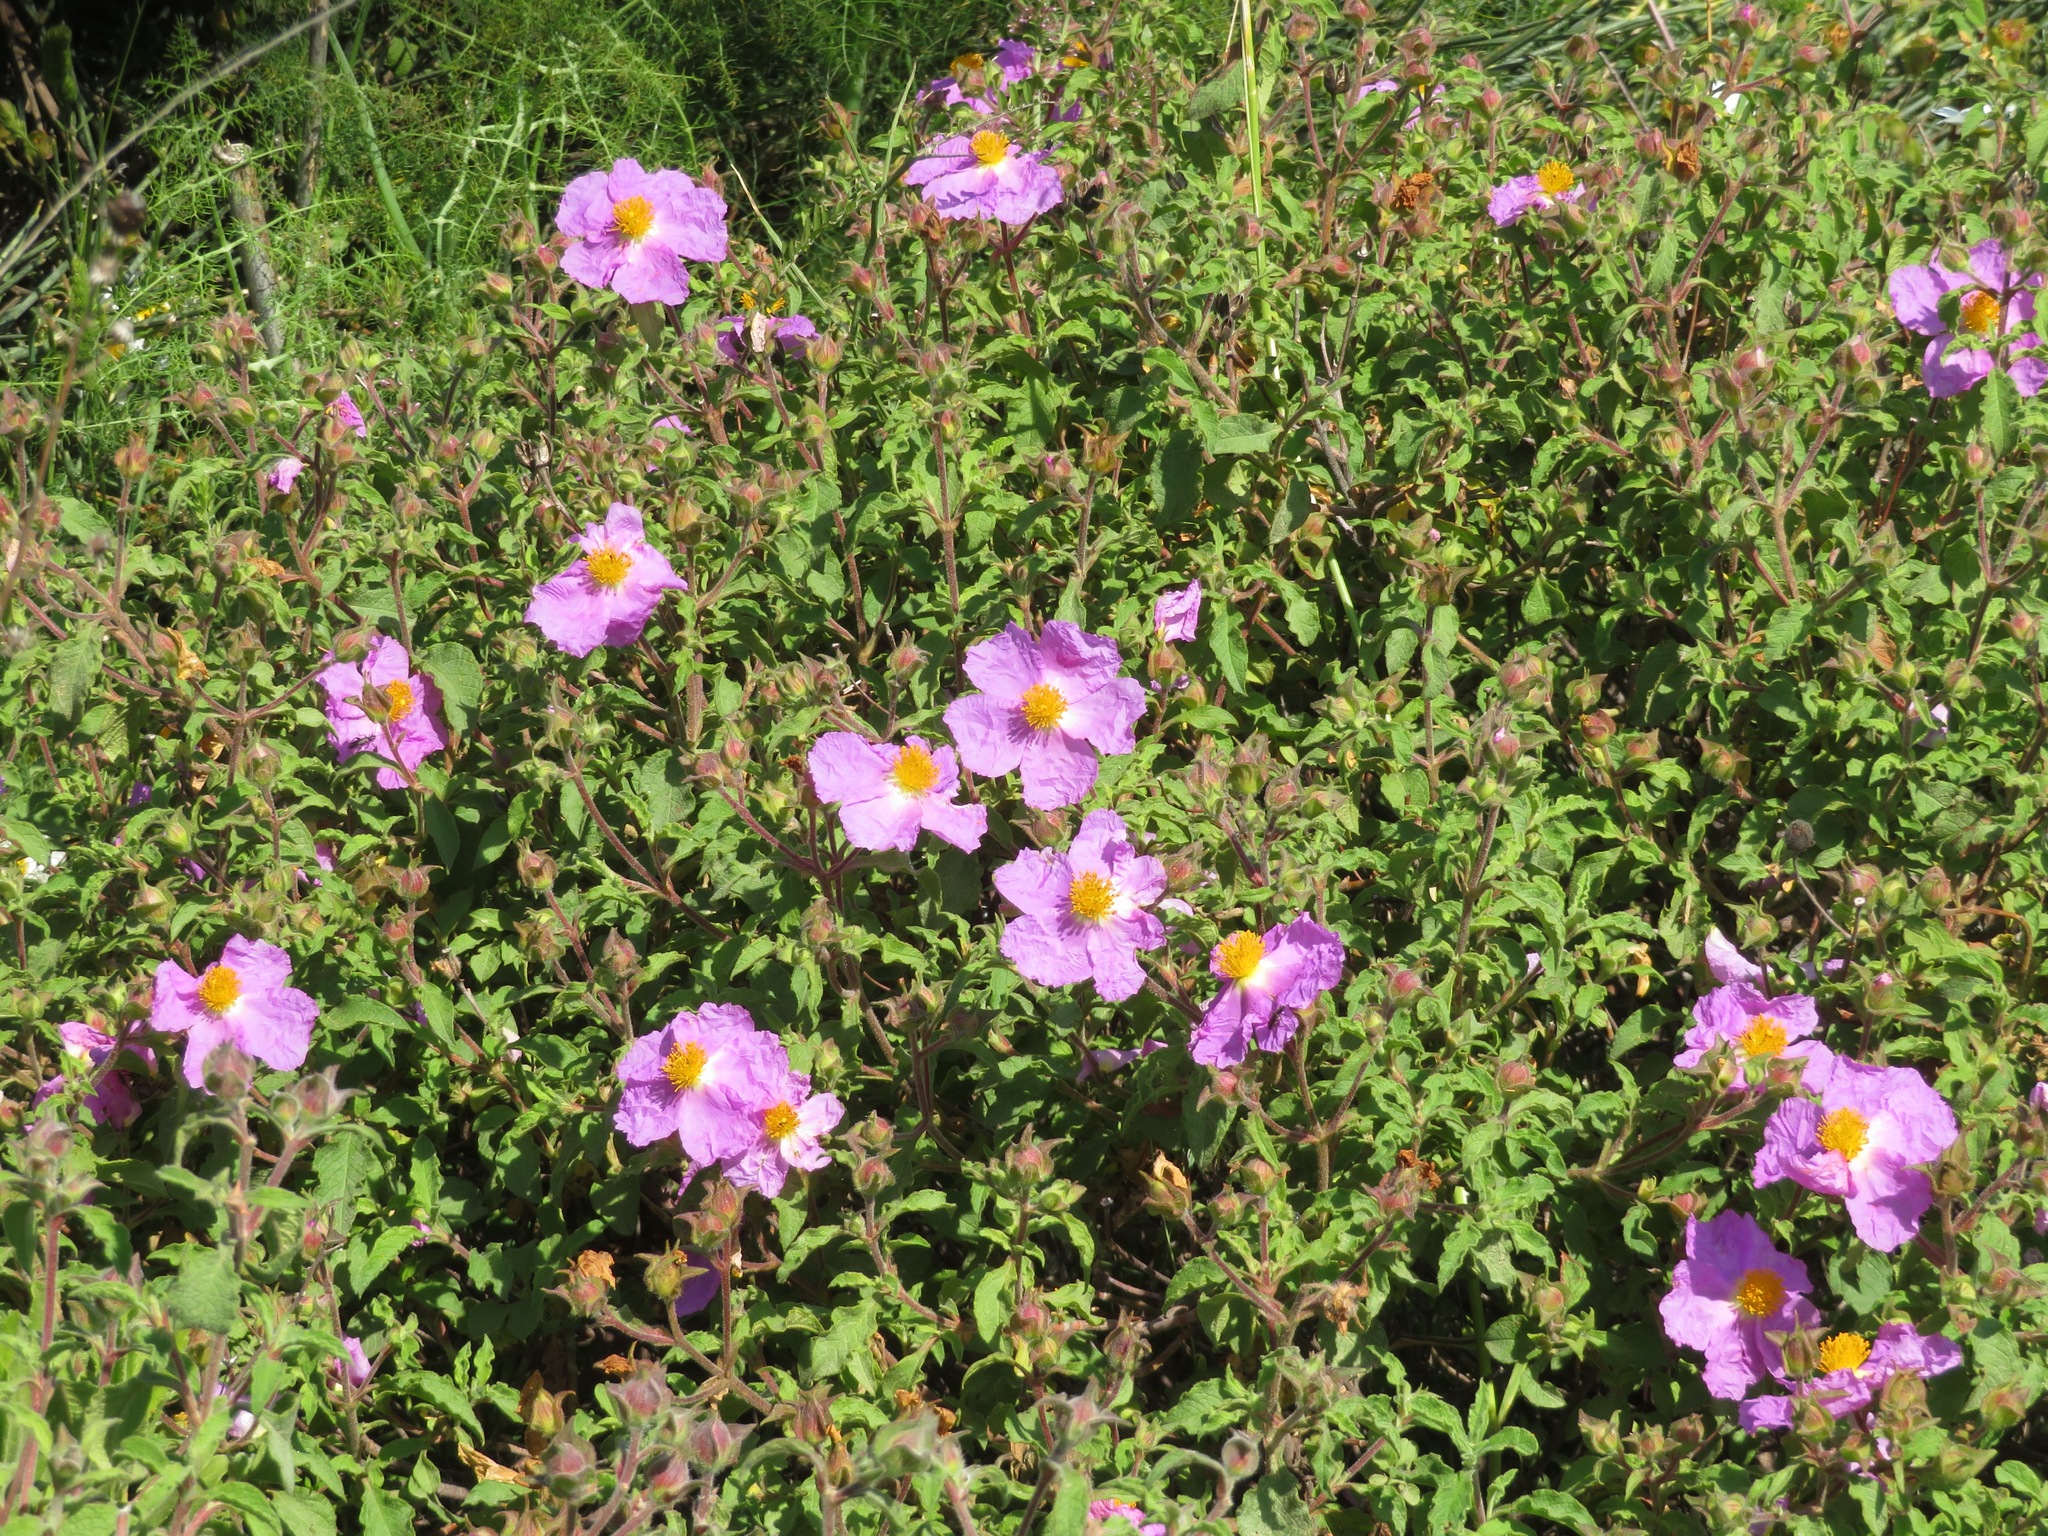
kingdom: Plantae
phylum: Tracheophyta
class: Magnoliopsida
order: Malvales
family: Cistaceae
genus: Cistus
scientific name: Cistus creticus
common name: Cretan rockrose
